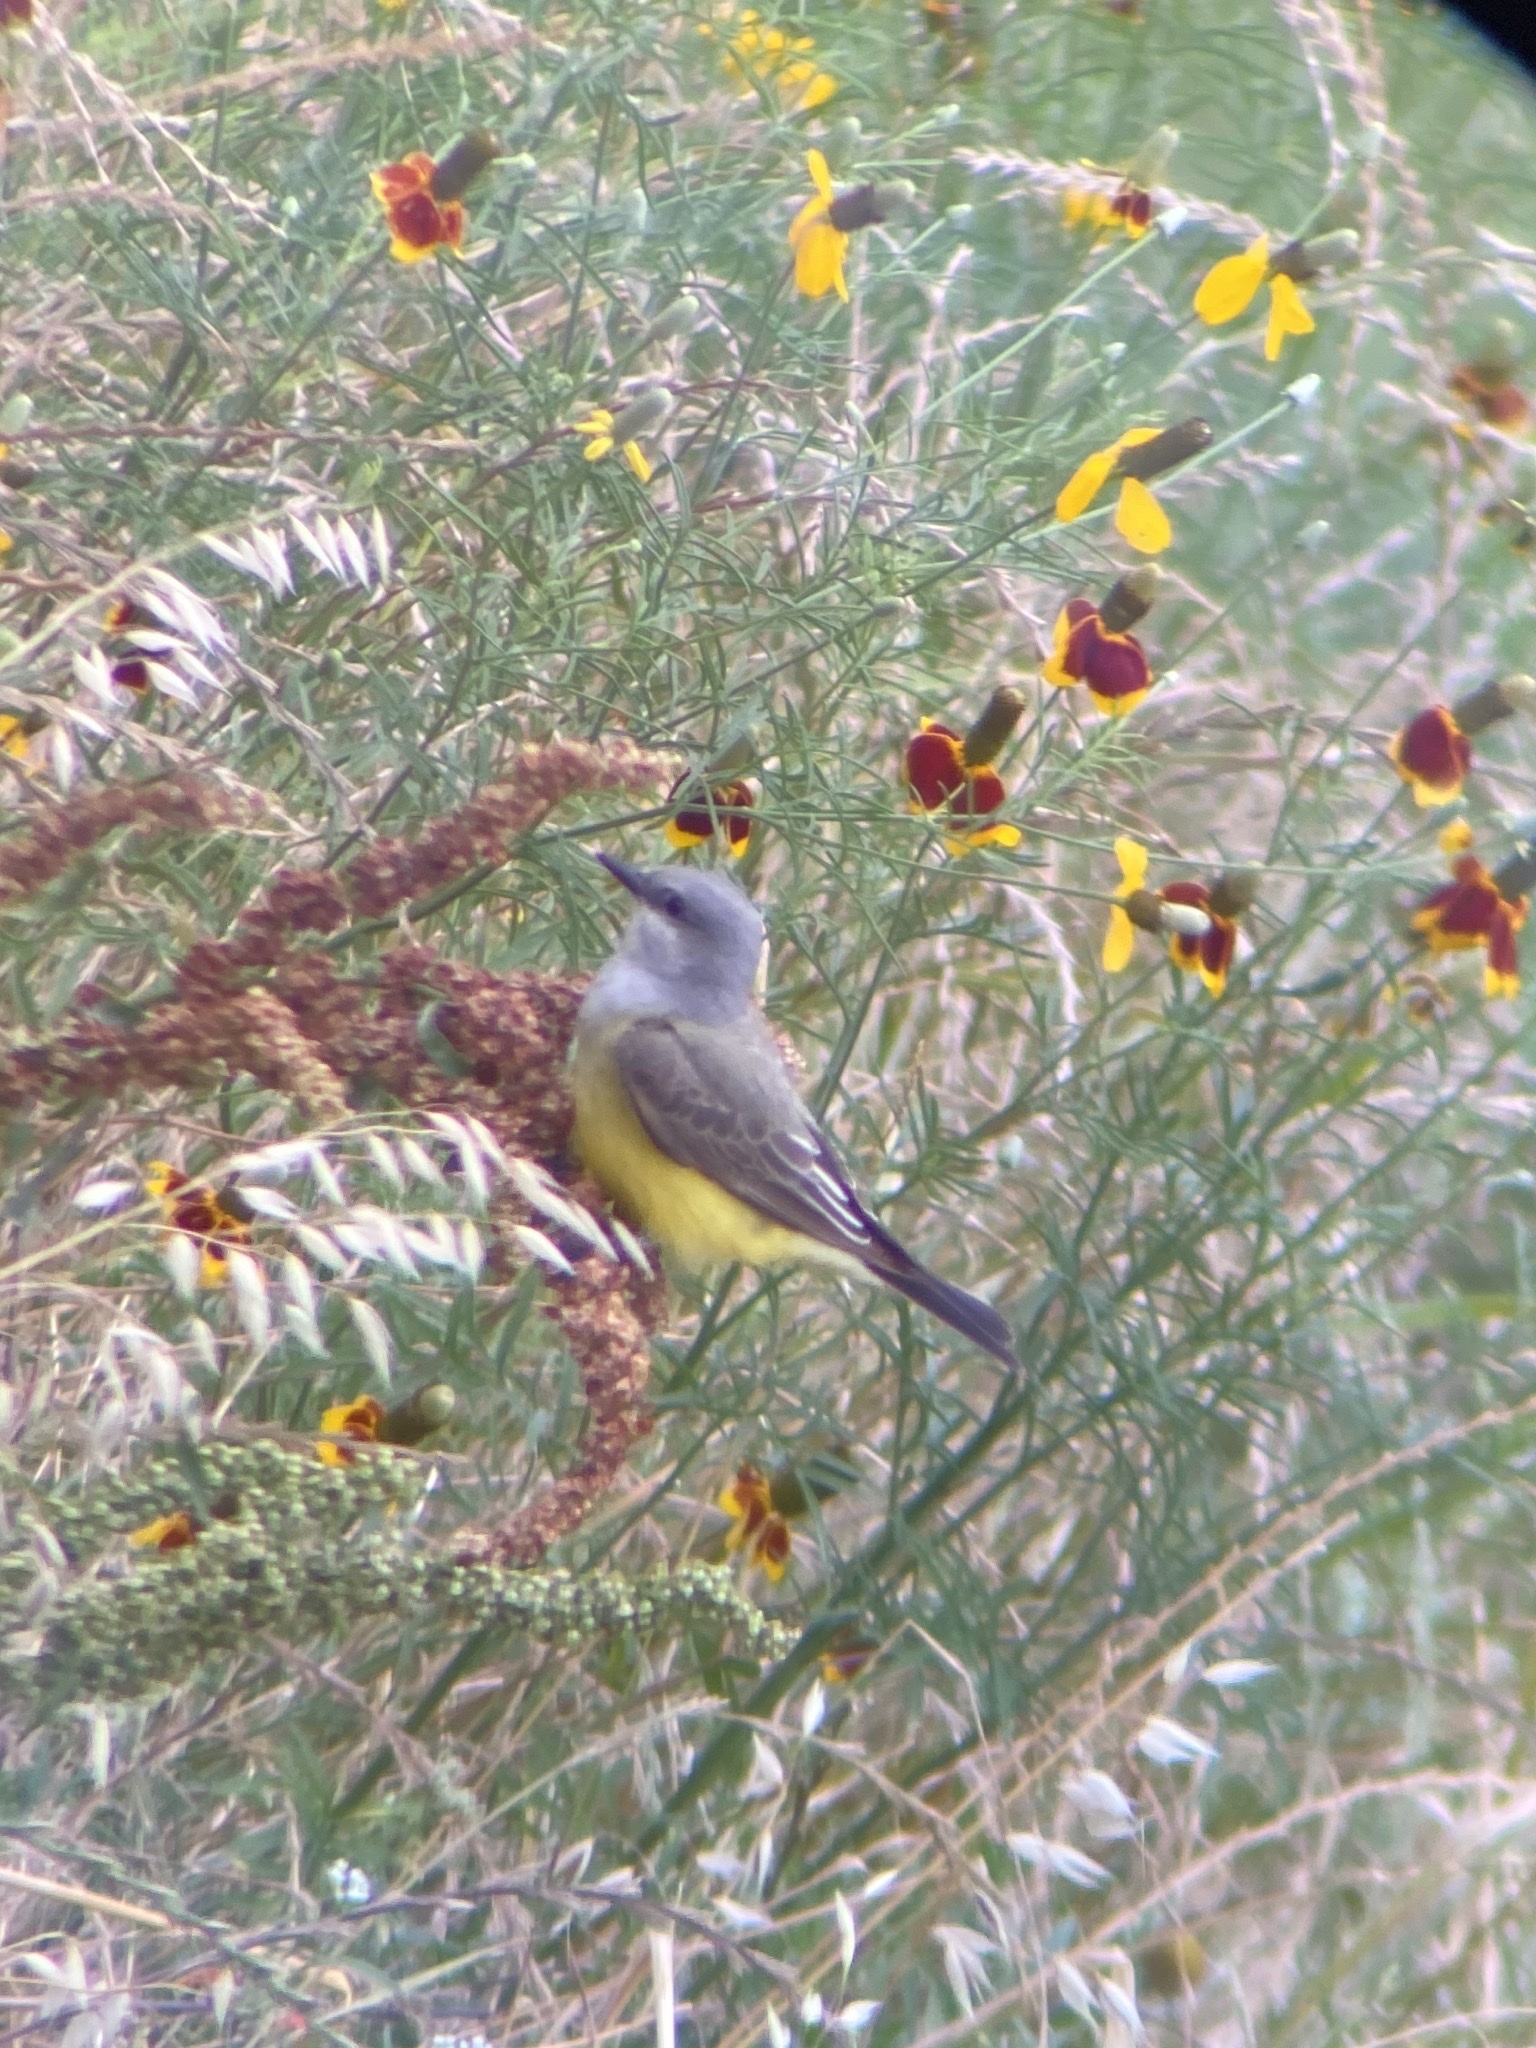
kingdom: Animalia
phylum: Chordata
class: Aves
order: Passeriformes
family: Tyrannidae
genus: Tyrannus
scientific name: Tyrannus verticalis
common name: Western kingbird
